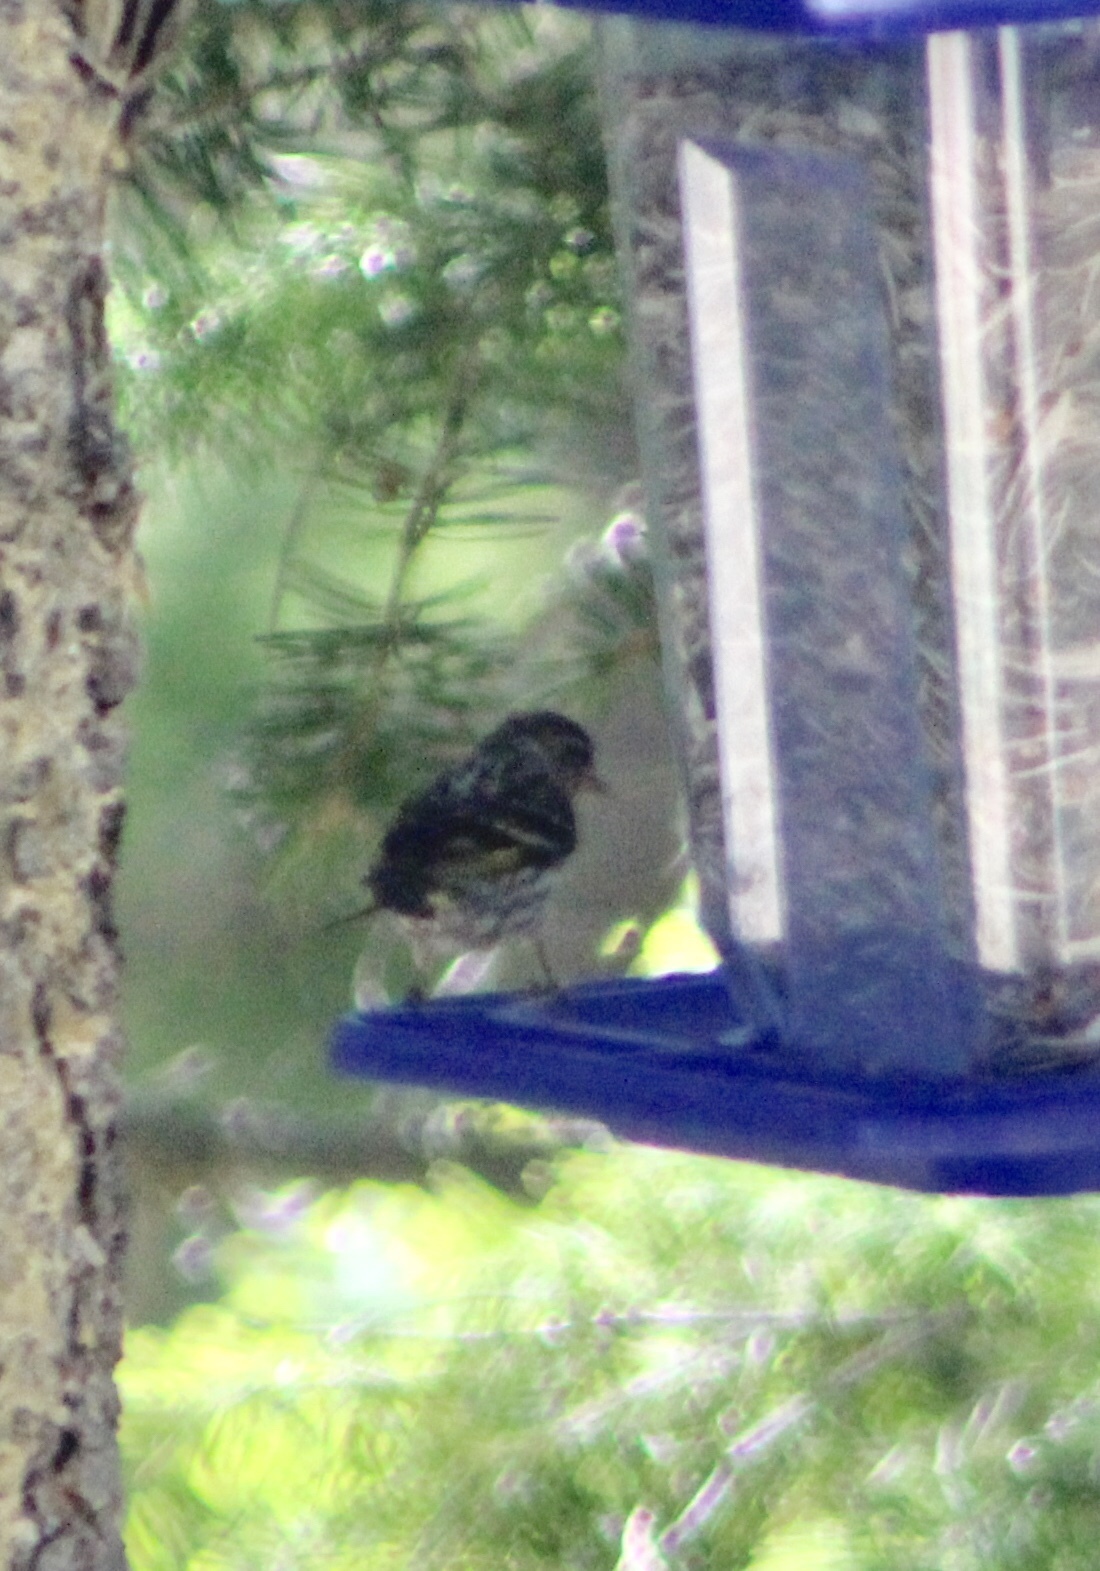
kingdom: Animalia
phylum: Chordata
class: Aves
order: Passeriformes
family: Fringillidae
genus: Spinus
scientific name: Spinus pinus
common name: Pine siskin
